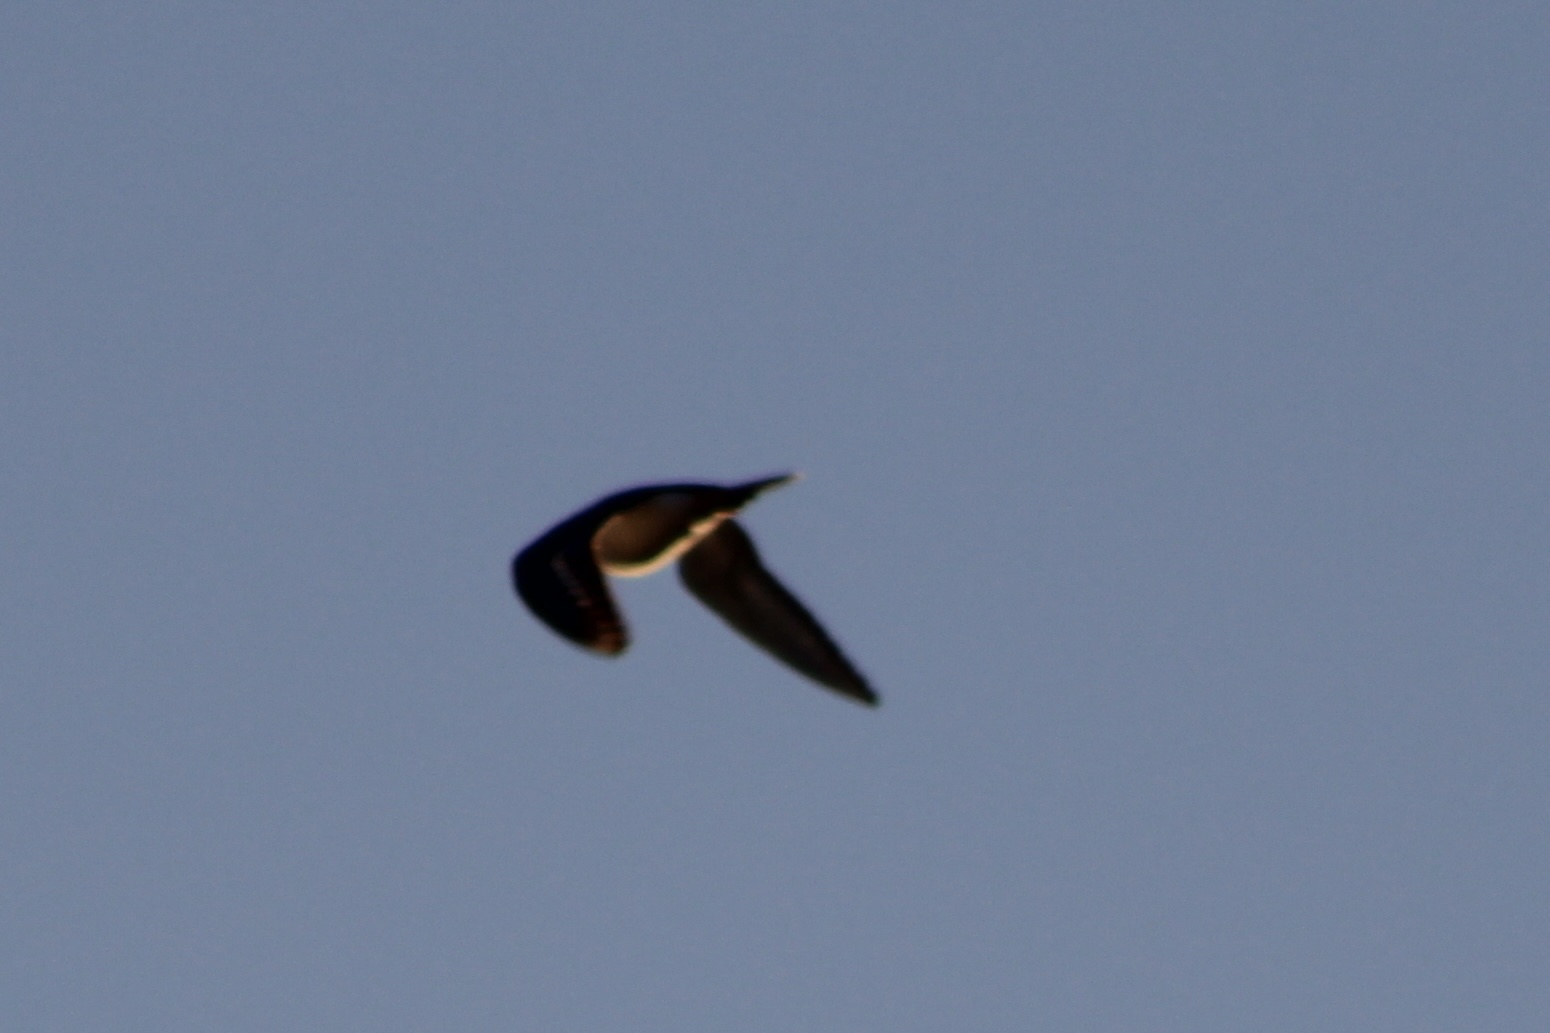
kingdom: Animalia
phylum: Chordata
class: Aves
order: Charadriiformes
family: Charadriidae
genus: Charadrius
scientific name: Charadrius vociferus
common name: Killdeer
